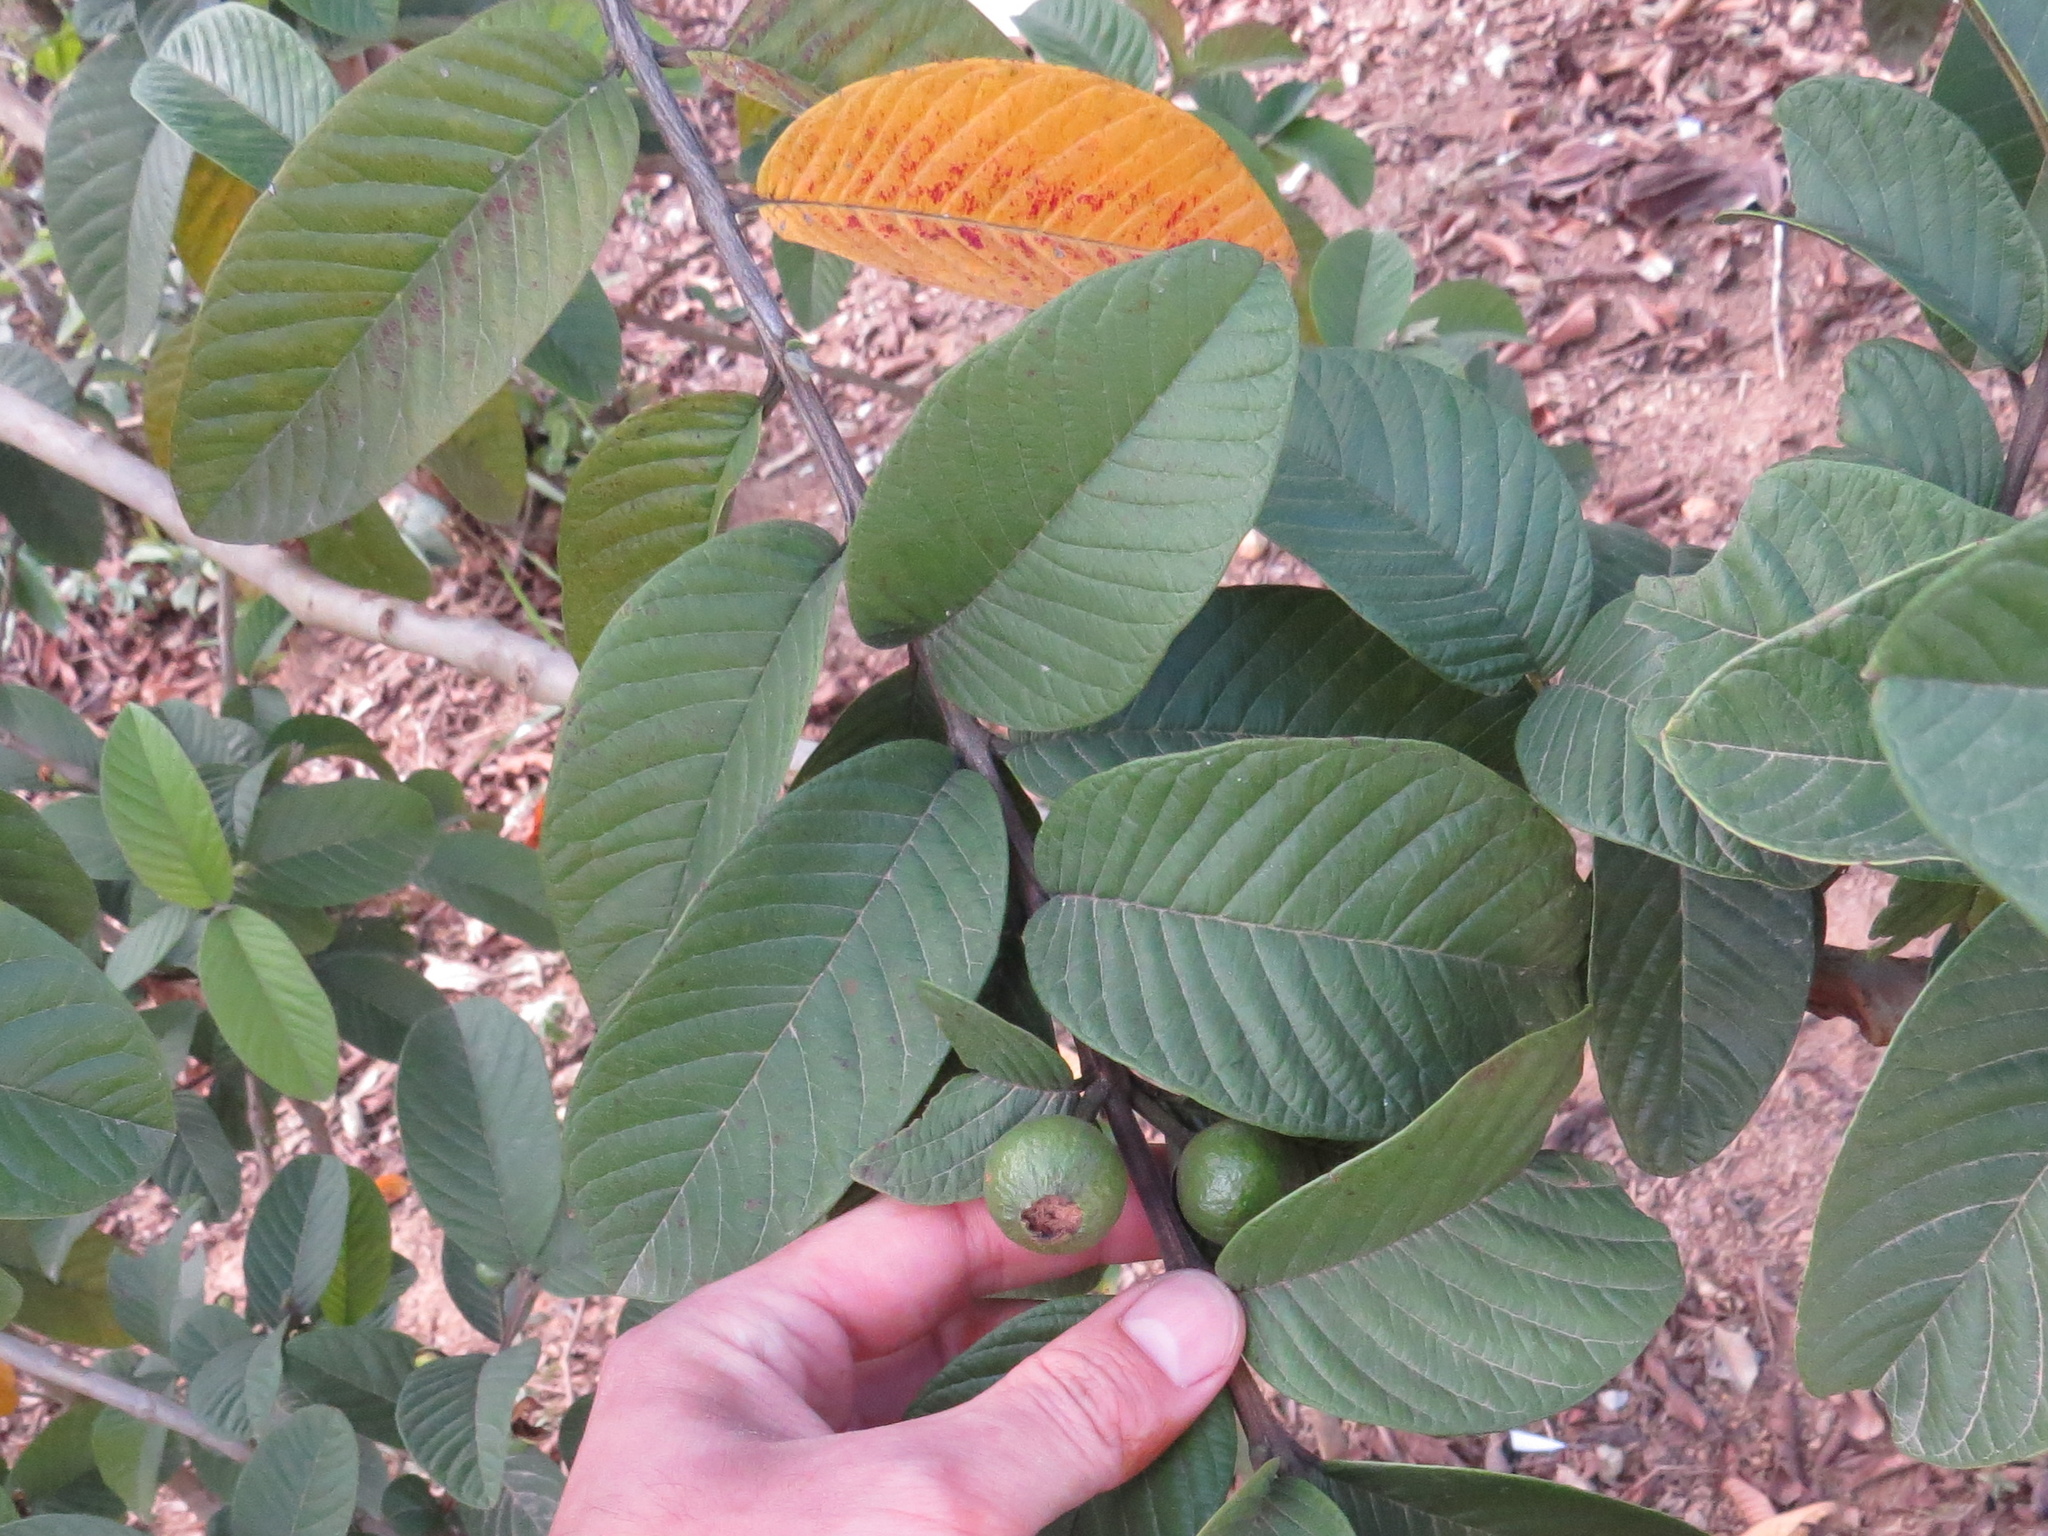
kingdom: Plantae
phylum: Tracheophyta
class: Magnoliopsida
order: Myrtales
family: Myrtaceae
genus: Psidium
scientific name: Psidium guajava
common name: Guava
